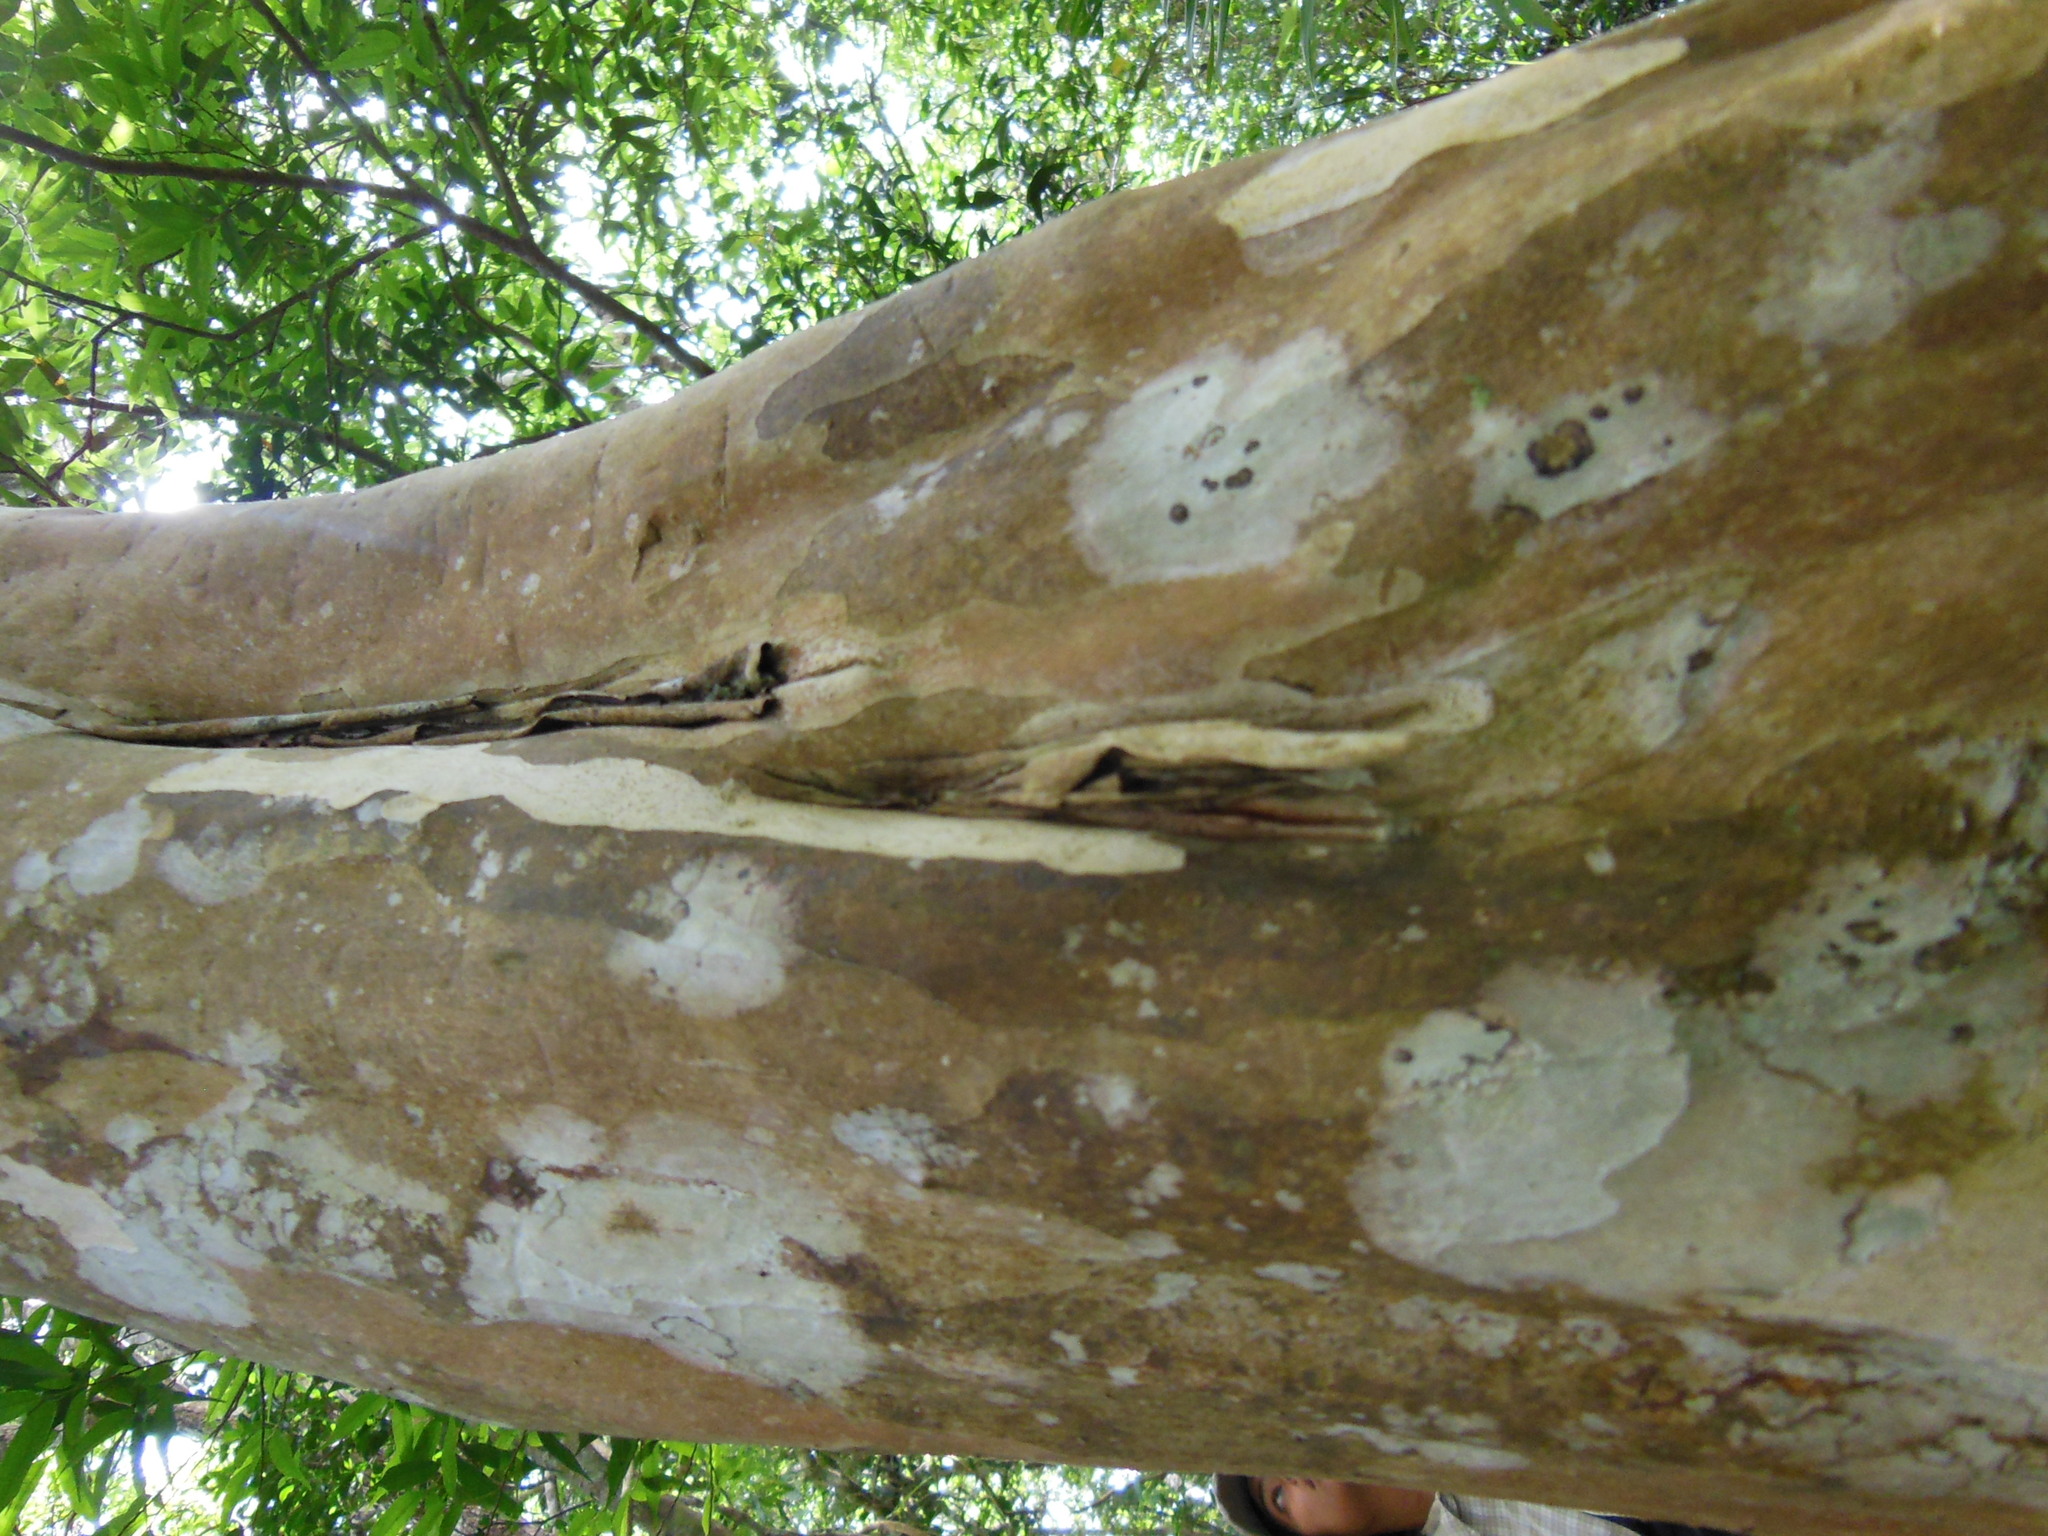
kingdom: Plantae
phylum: Tracheophyta
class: Magnoliopsida
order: Myrtales
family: Myrtaceae
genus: Eugenia
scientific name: Eugenia standleyi
